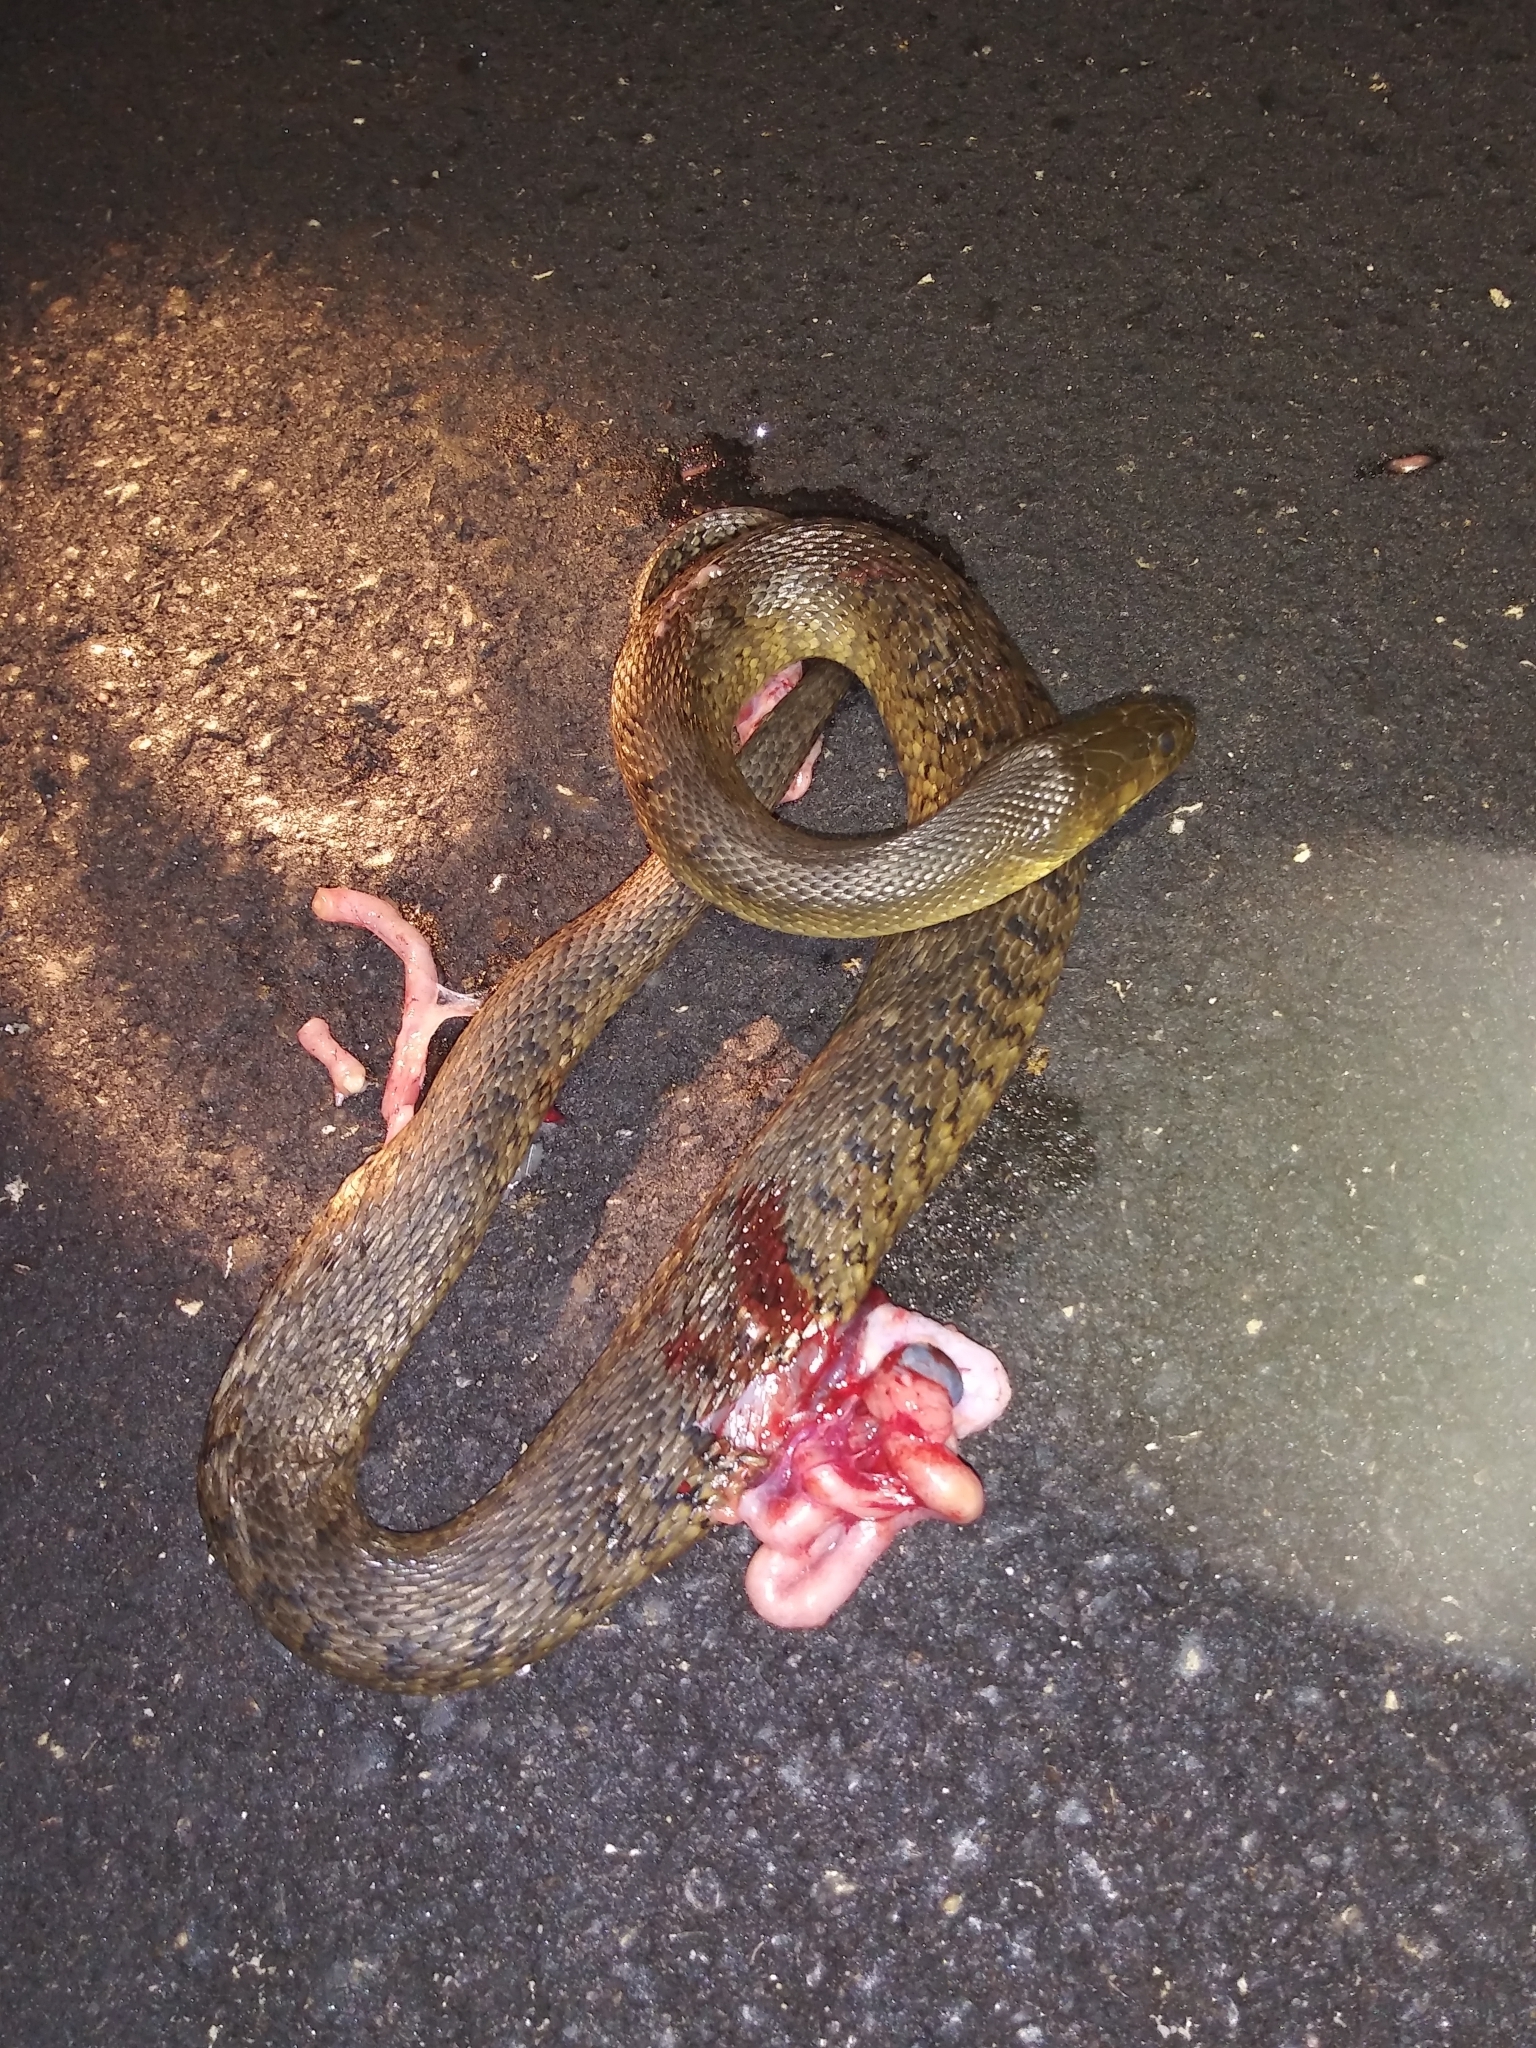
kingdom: Animalia
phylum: Chordata
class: Squamata
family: Colubridae
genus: Nerodia
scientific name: Nerodia floridana
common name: Florida green watersnake
